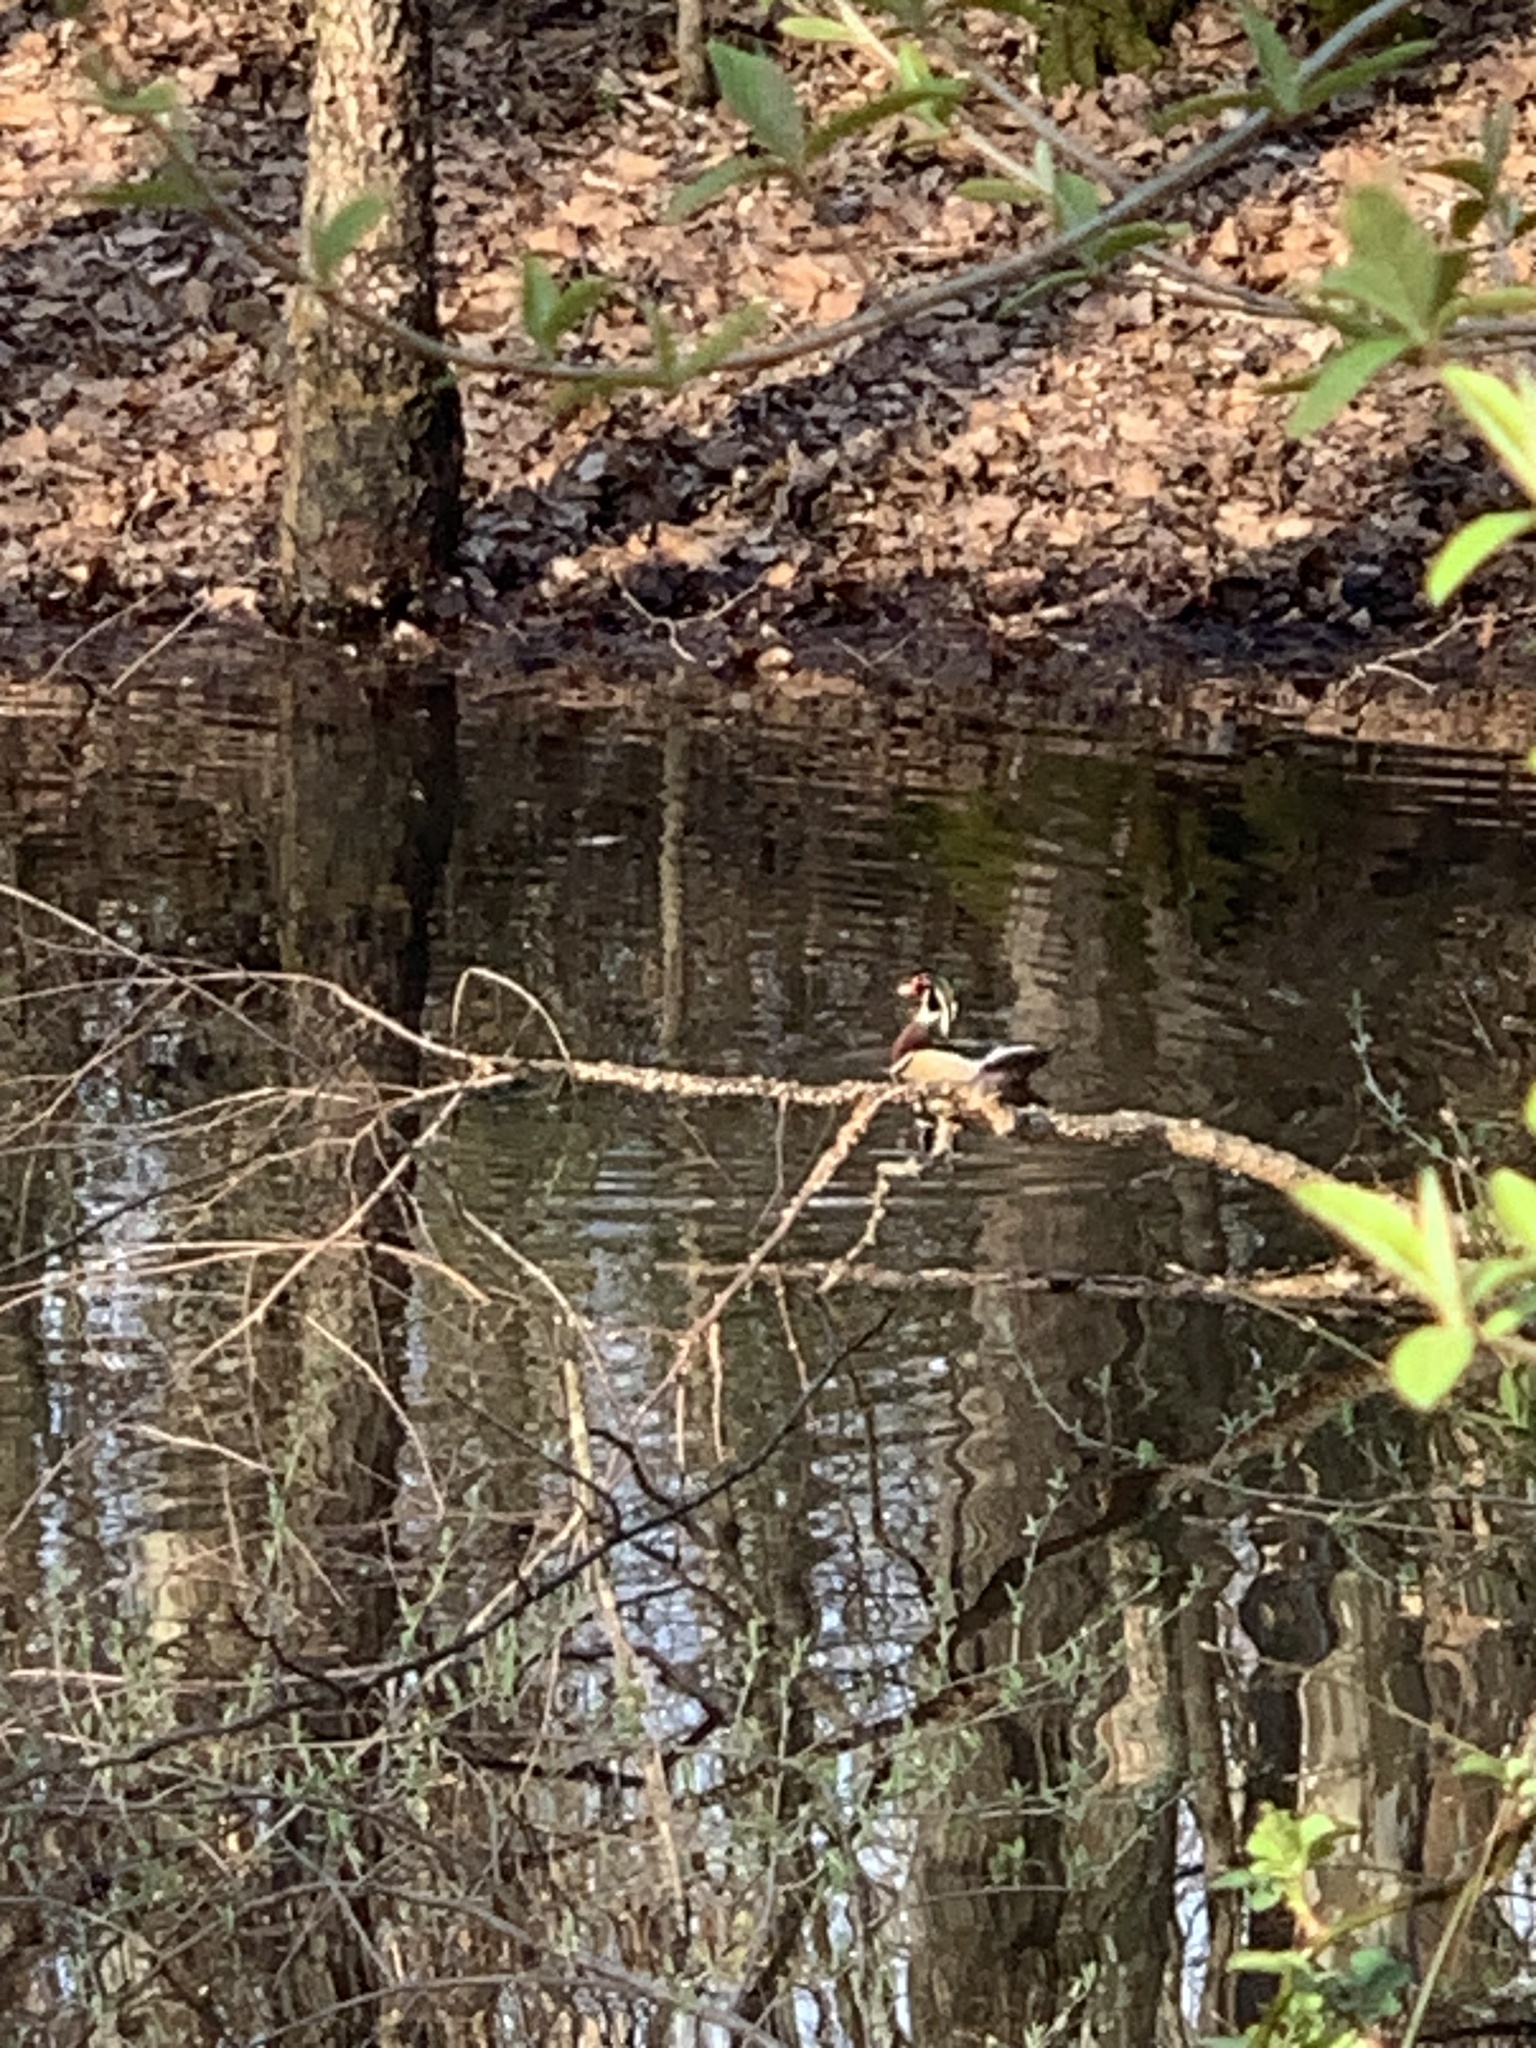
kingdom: Animalia
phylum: Chordata
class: Aves
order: Anseriformes
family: Anatidae
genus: Aix
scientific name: Aix sponsa
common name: Wood duck
